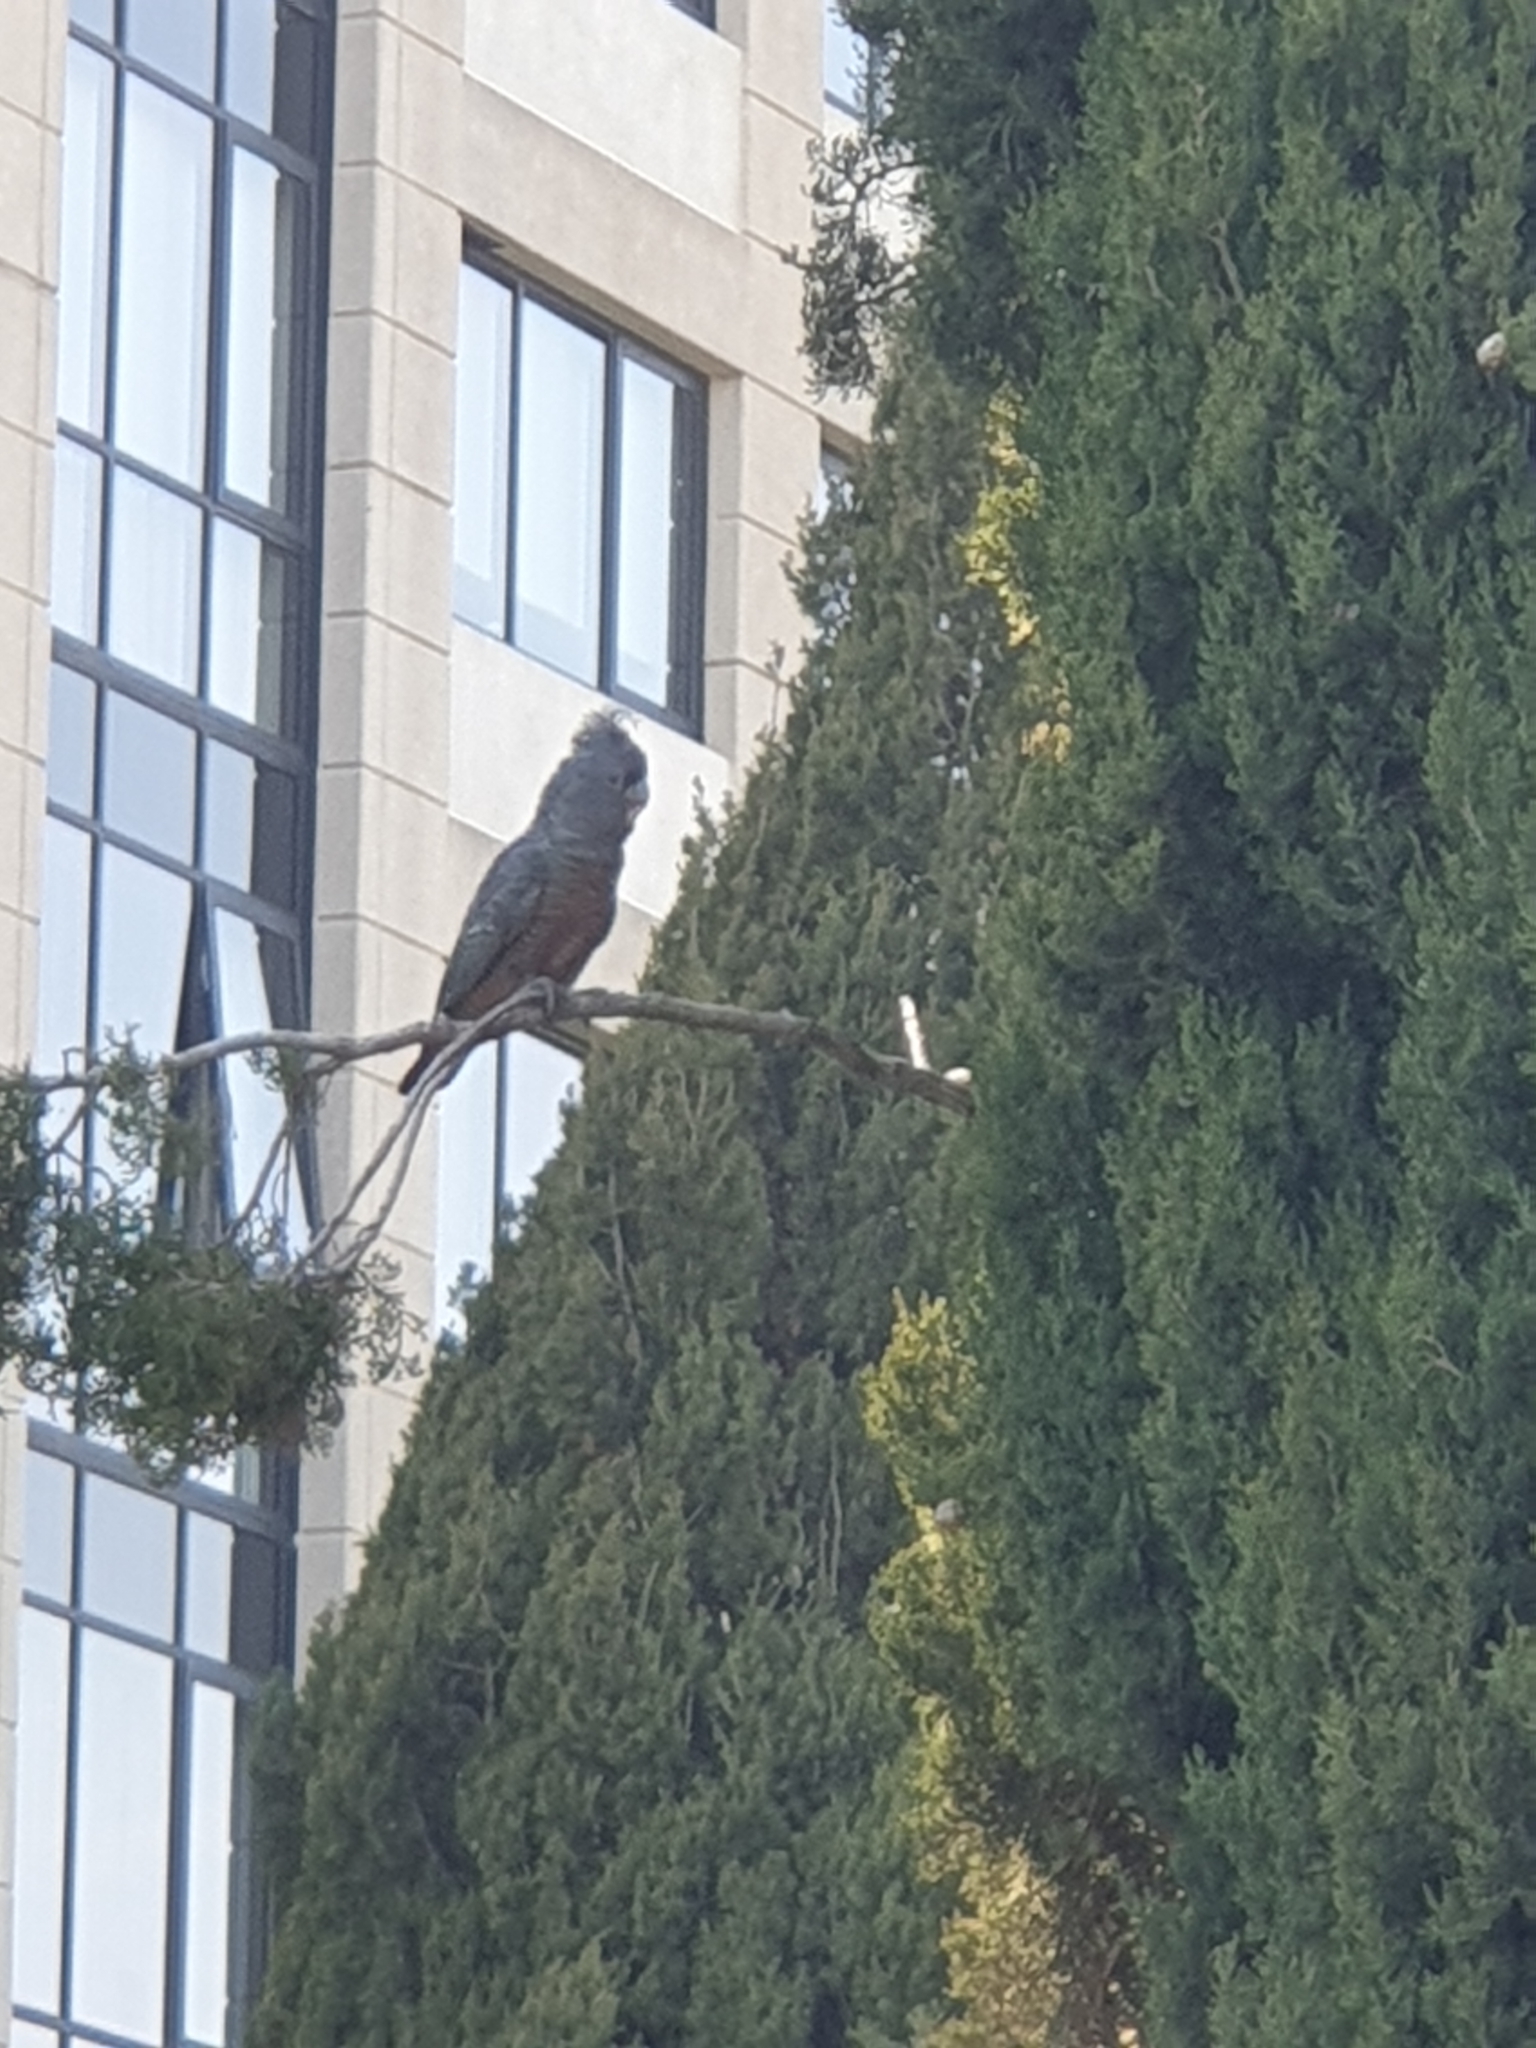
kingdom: Animalia
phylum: Chordata
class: Aves
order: Psittaciformes
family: Psittacidae
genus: Callocephalon
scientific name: Callocephalon fimbriatum
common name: Gang-gang cockatoo
